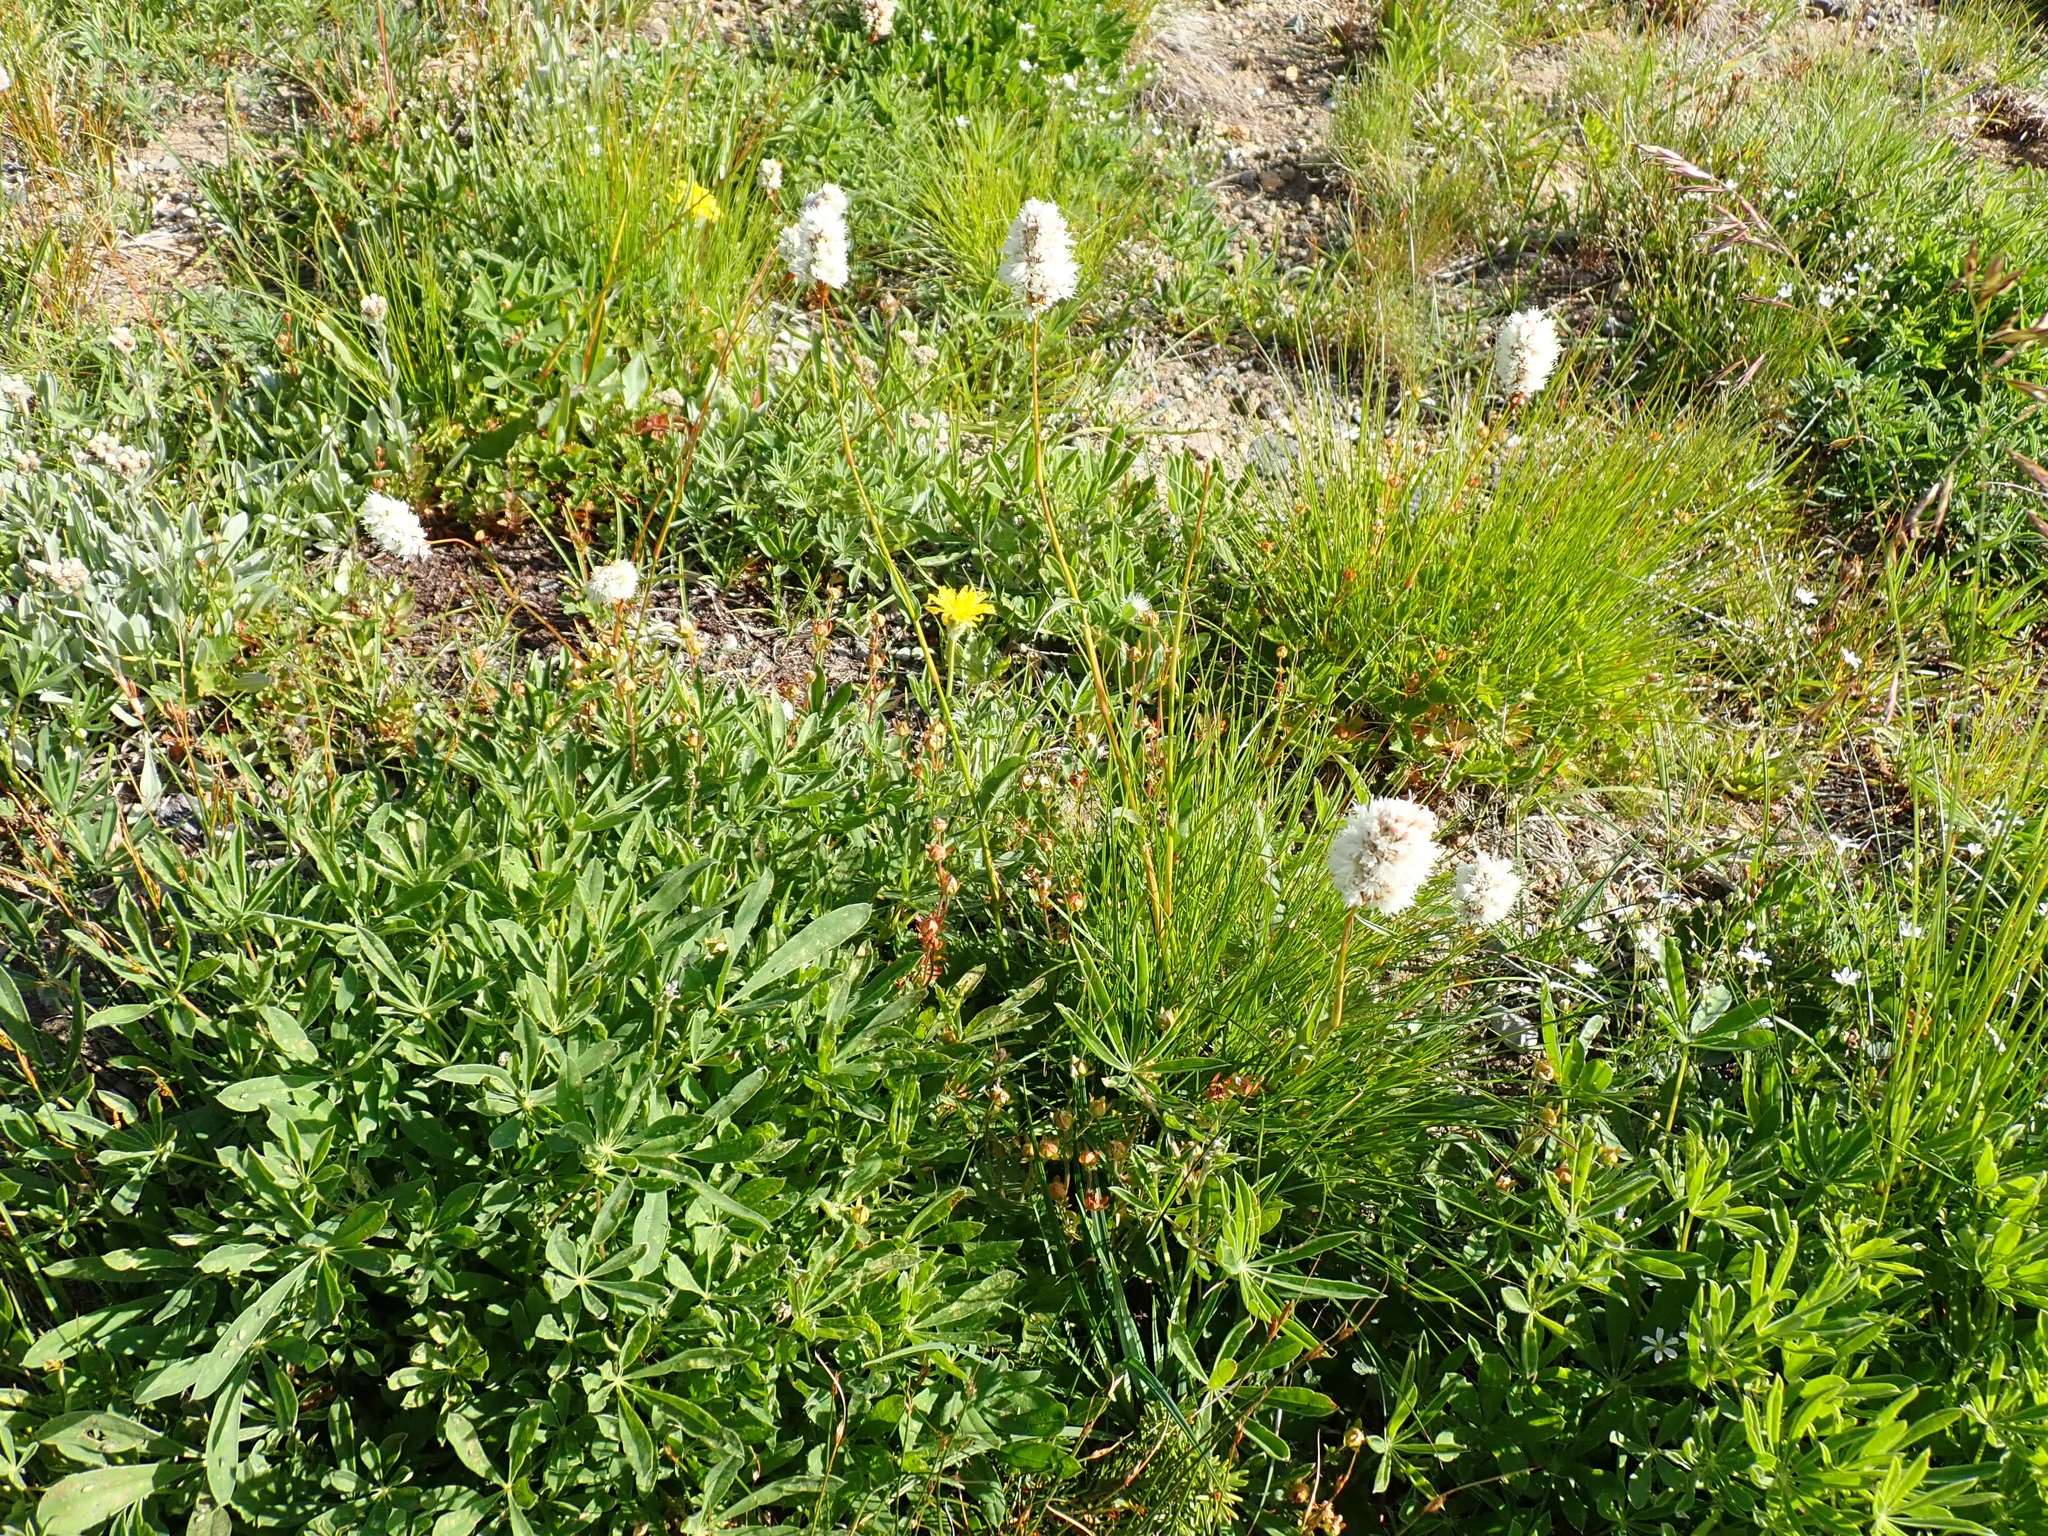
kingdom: Plantae
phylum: Tracheophyta
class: Magnoliopsida
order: Caryophyllales
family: Polygonaceae
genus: Bistorta
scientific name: Bistorta bistortoides
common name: American bistort
